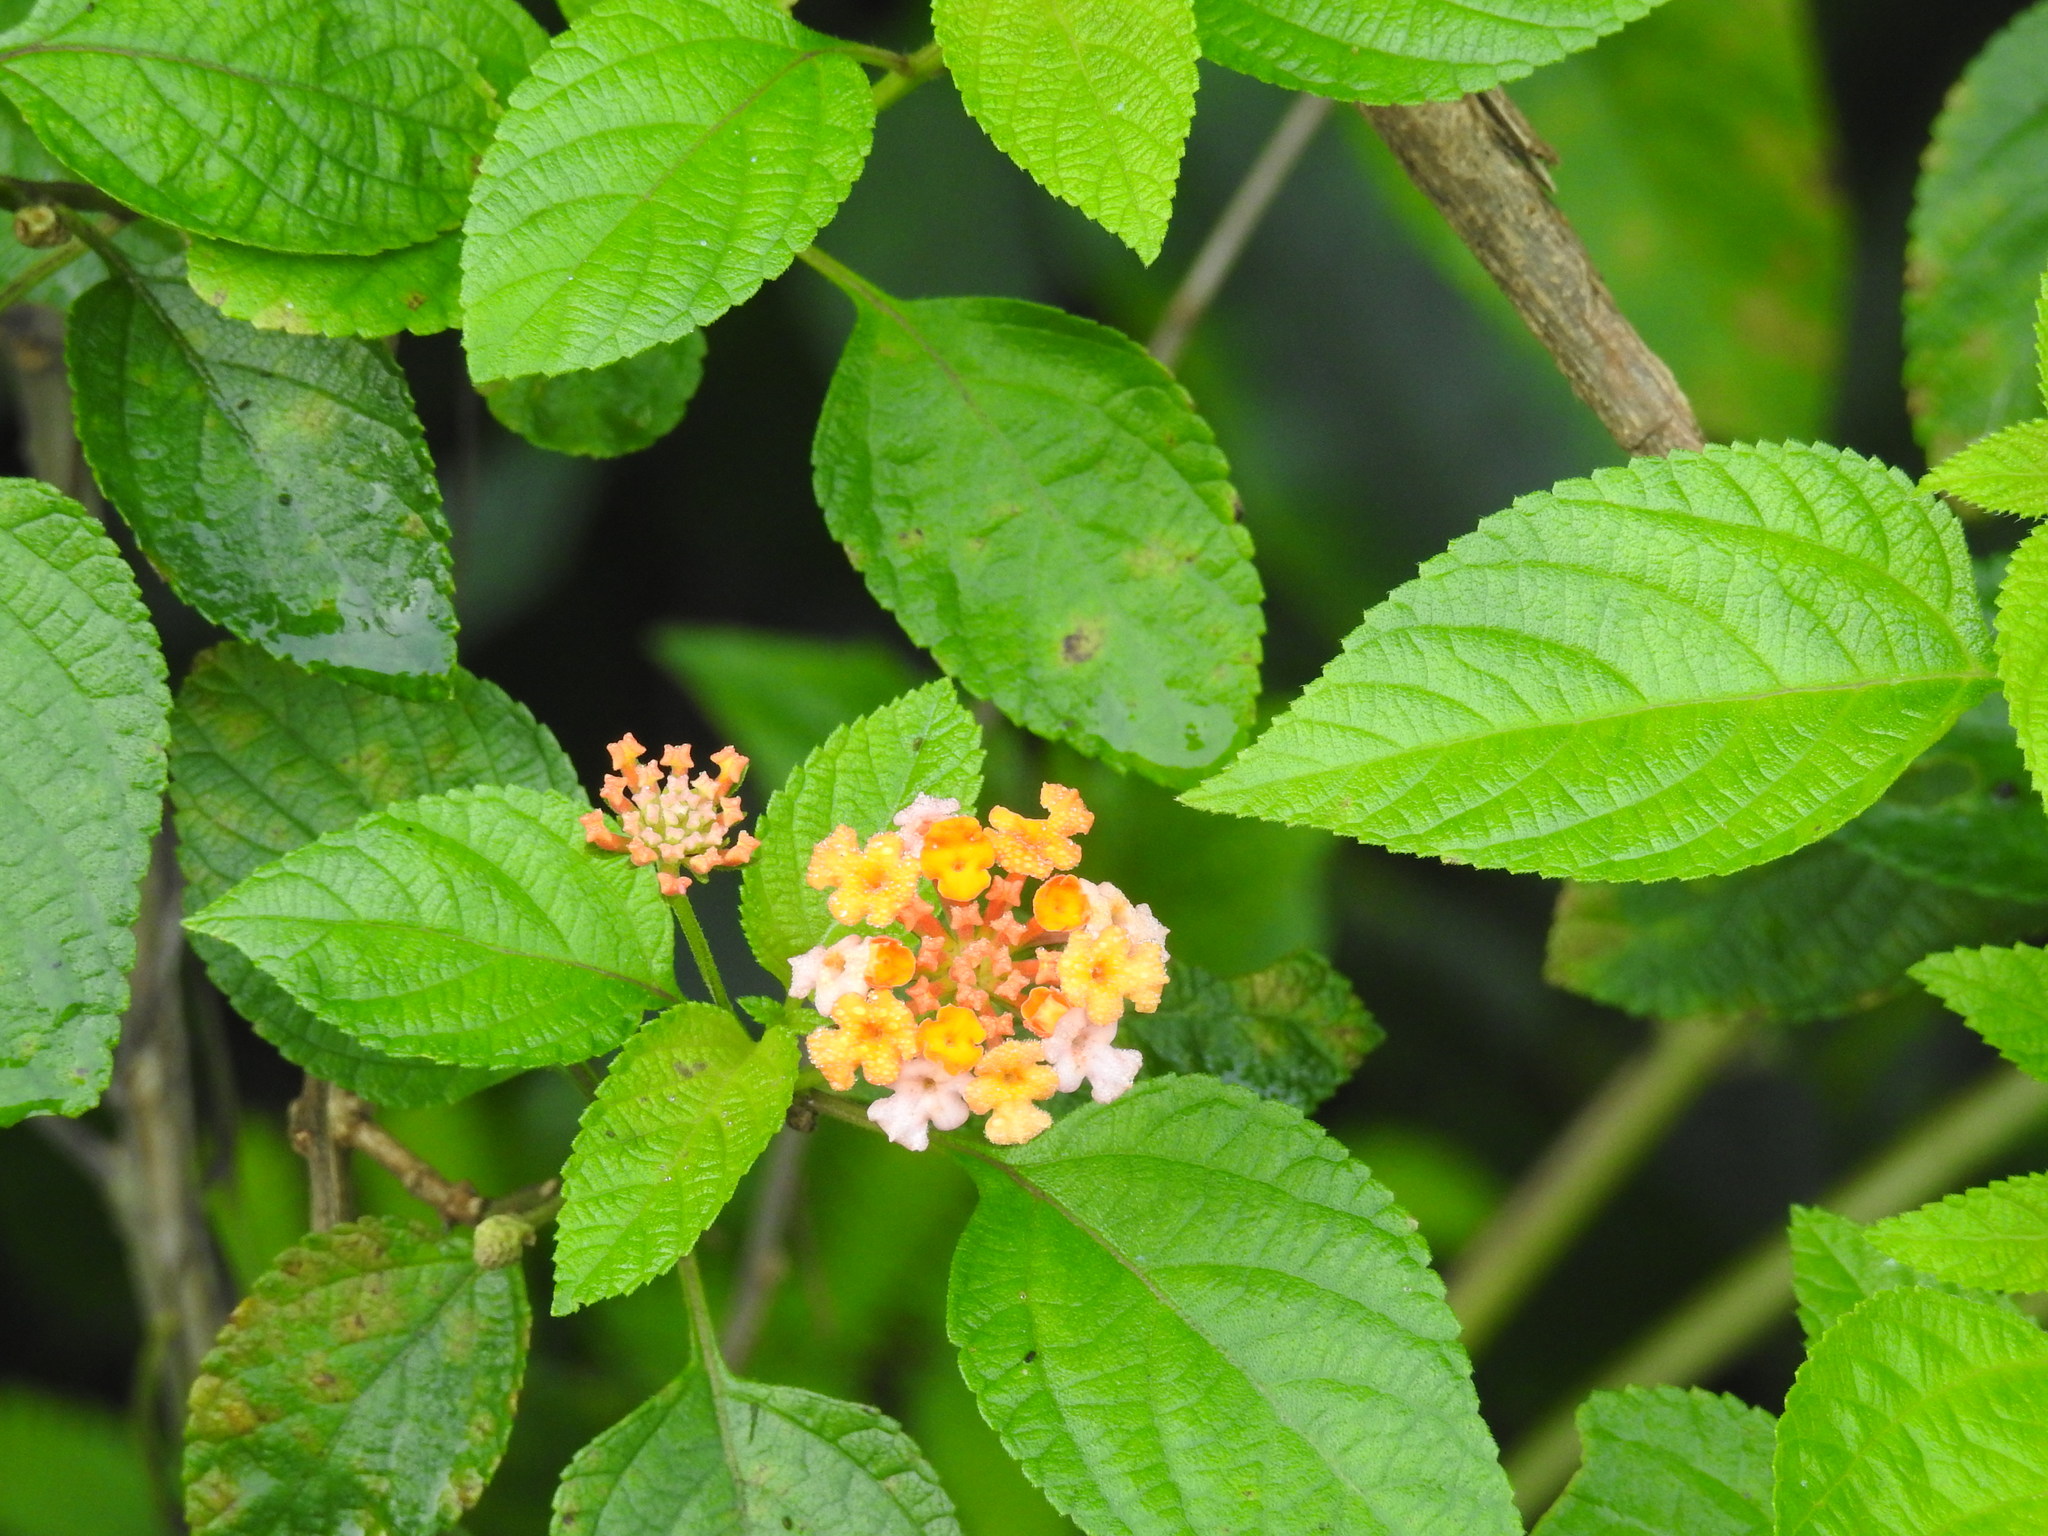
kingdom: Plantae
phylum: Tracheophyta
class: Magnoliopsida
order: Lamiales
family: Verbenaceae
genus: Lantana
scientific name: Lantana camara
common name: Lantana
